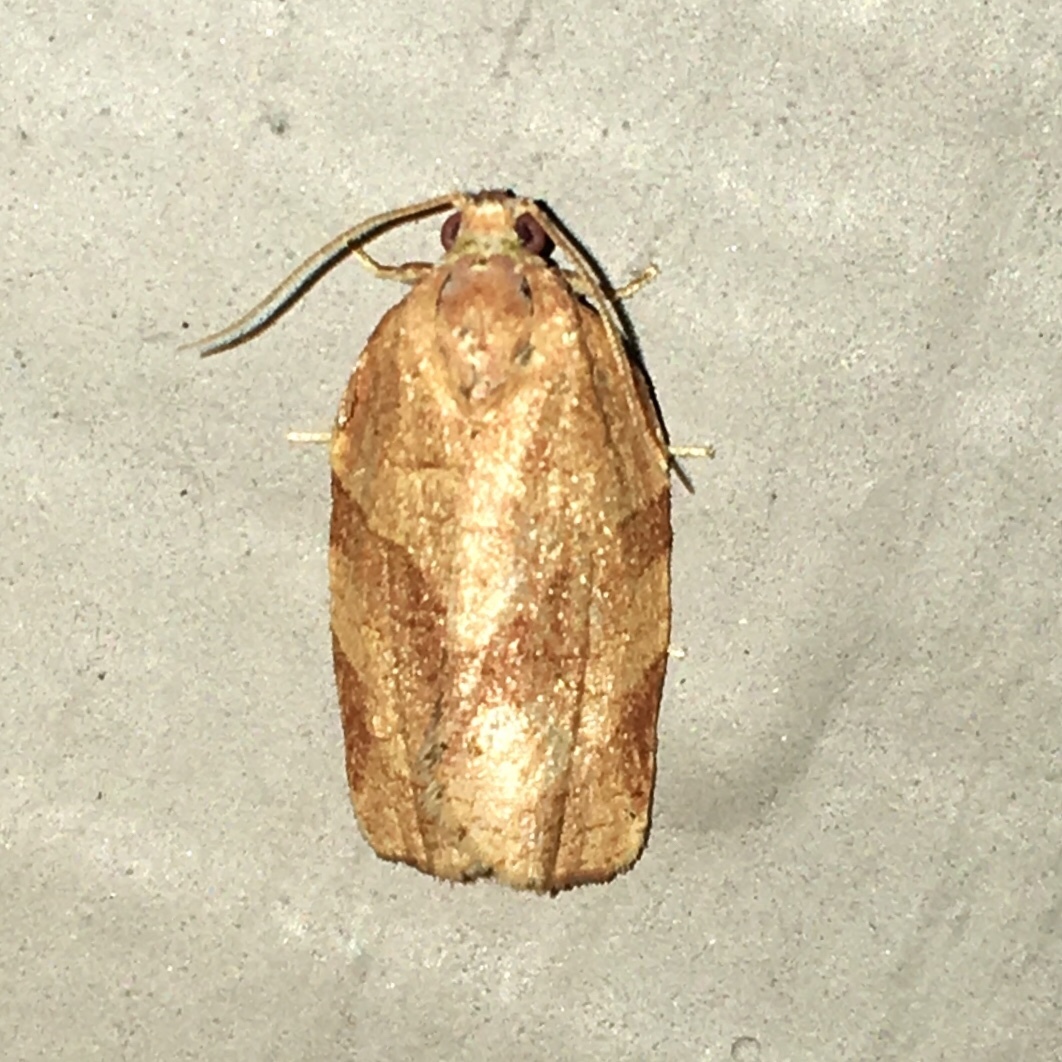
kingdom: Animalia
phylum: Arthropoda
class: Insecta
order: Lepidoptera
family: Tortricidae
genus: Choristoneura
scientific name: Choristoneura rosaceana
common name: Oblique-banded leafroller moth
